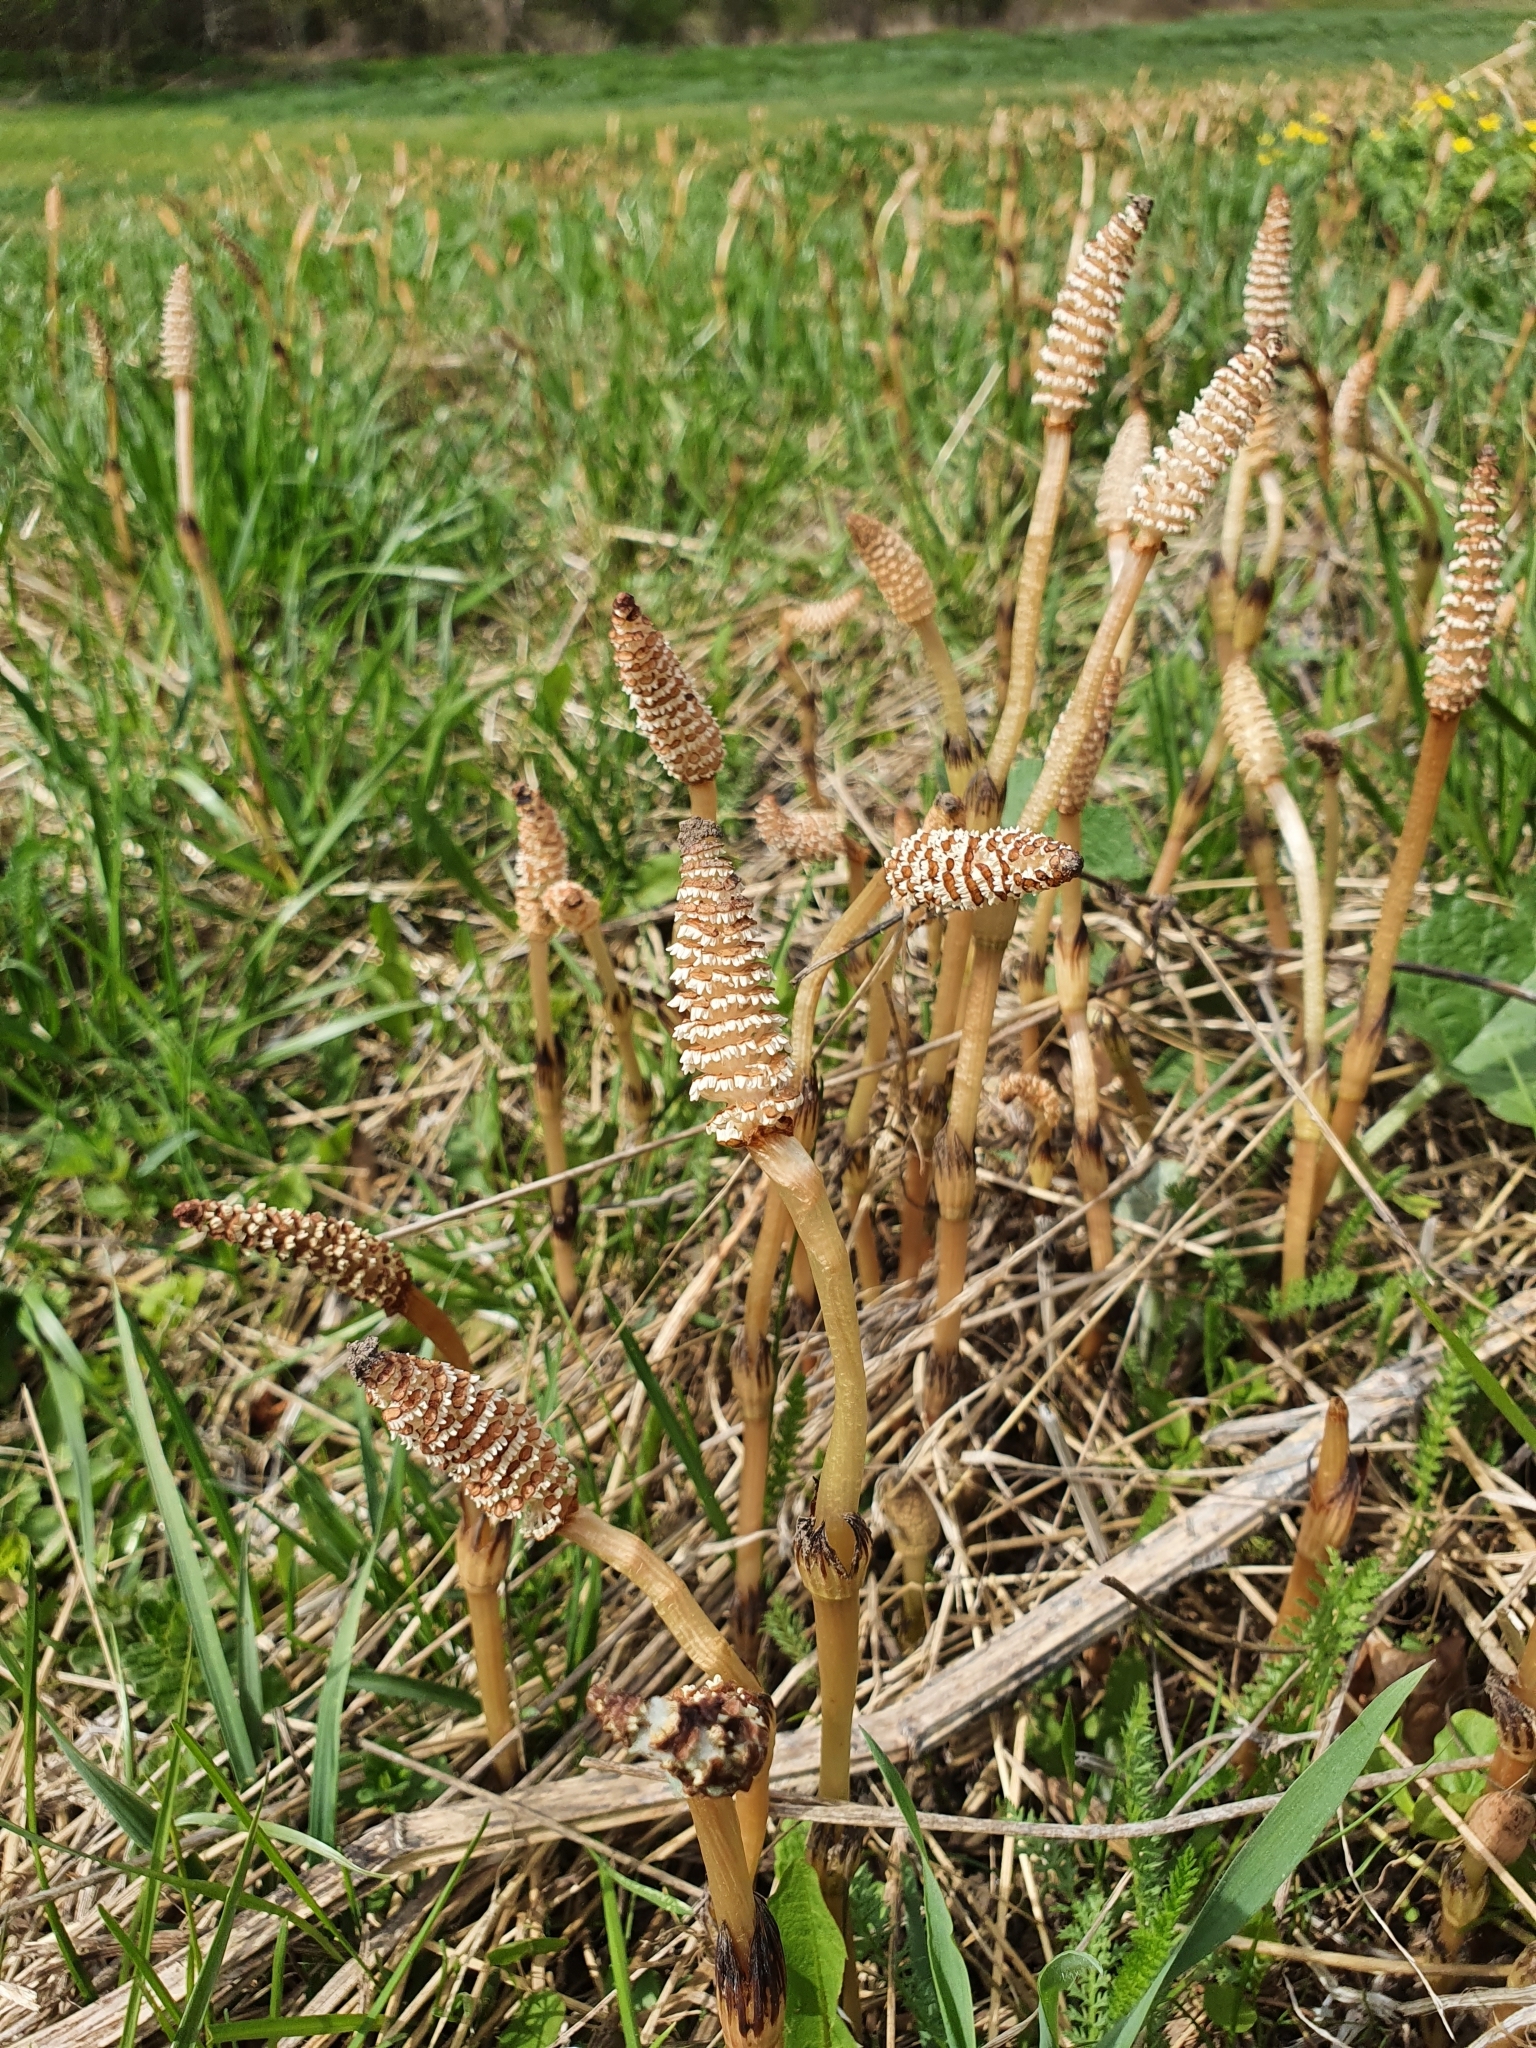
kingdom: Plantae
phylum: Tracheophyta
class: Polypodiopsida
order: Equisetales
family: Equisetaceae
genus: Equisetum
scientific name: Equisetum arvense
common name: Field horsetail
